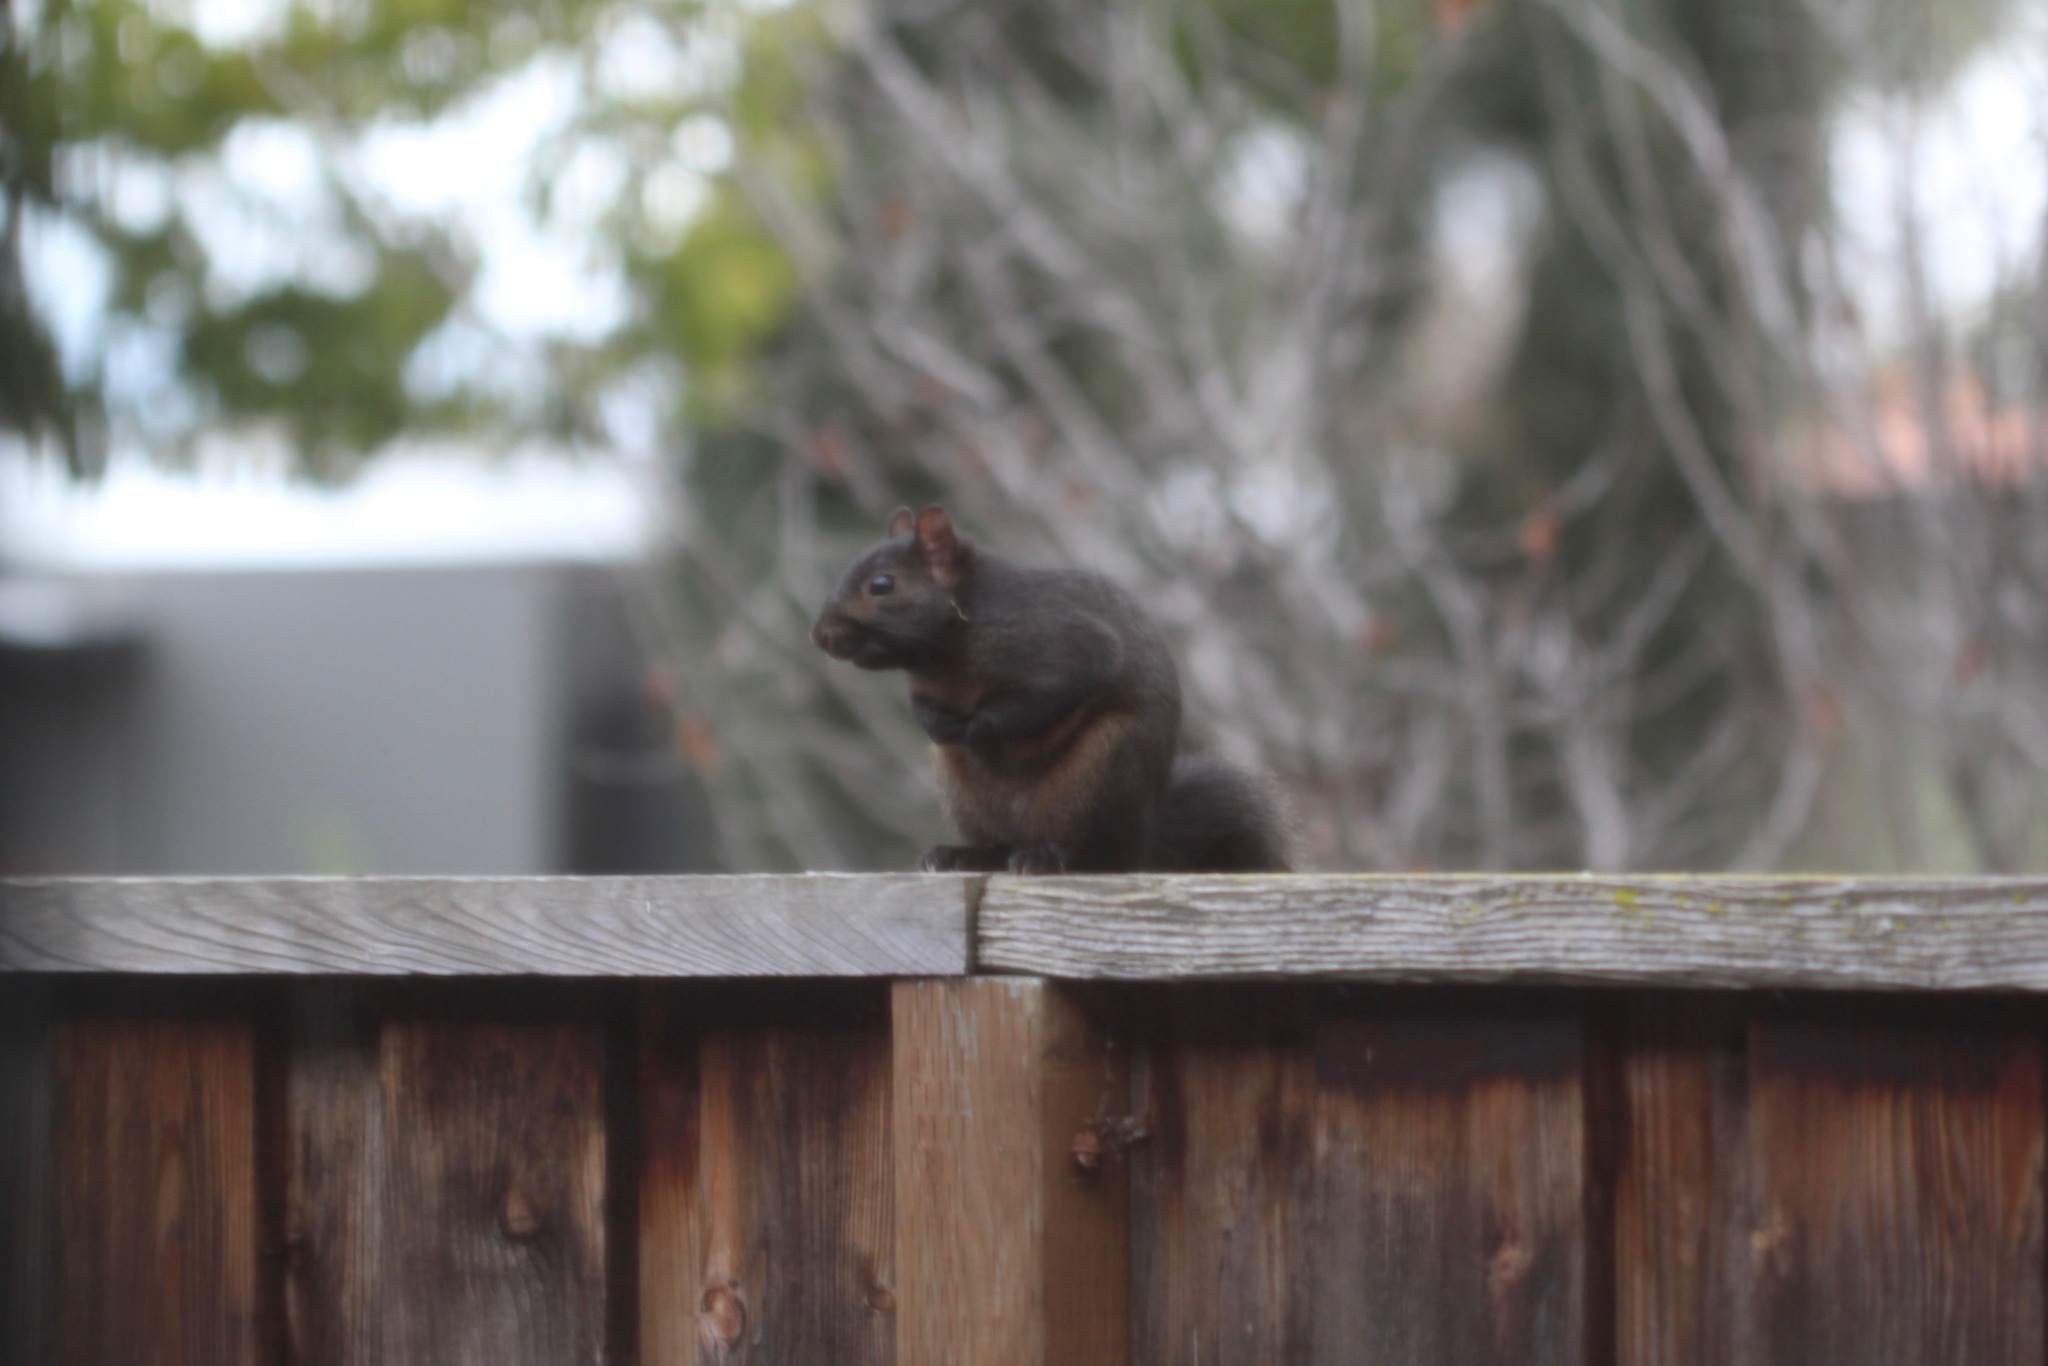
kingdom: Animalia
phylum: Chordata
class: Mammalia
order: Rodentia
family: Sciuridae
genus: Sciurus
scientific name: Sciurus carolinensis
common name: Eastern gray squirrel
